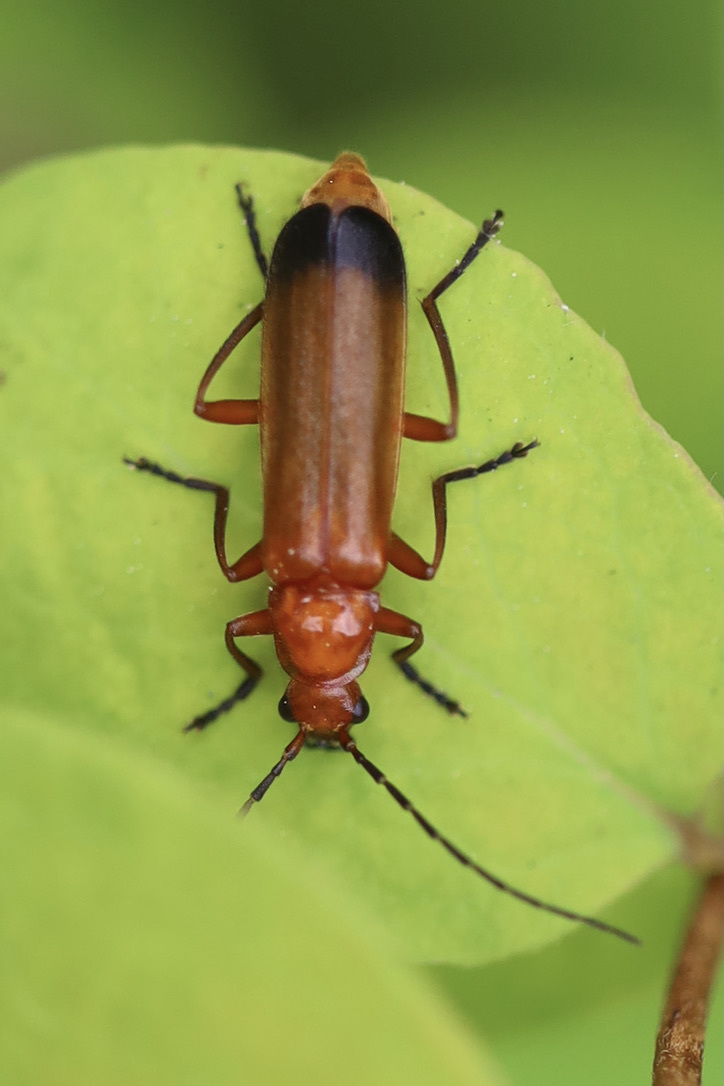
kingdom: Animalia
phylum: Arthropoda
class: Insecta
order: Coleoptera
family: Cantharidae
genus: Rhagonycha
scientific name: Rhagonycha fulva
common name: Common red soldier beetle
